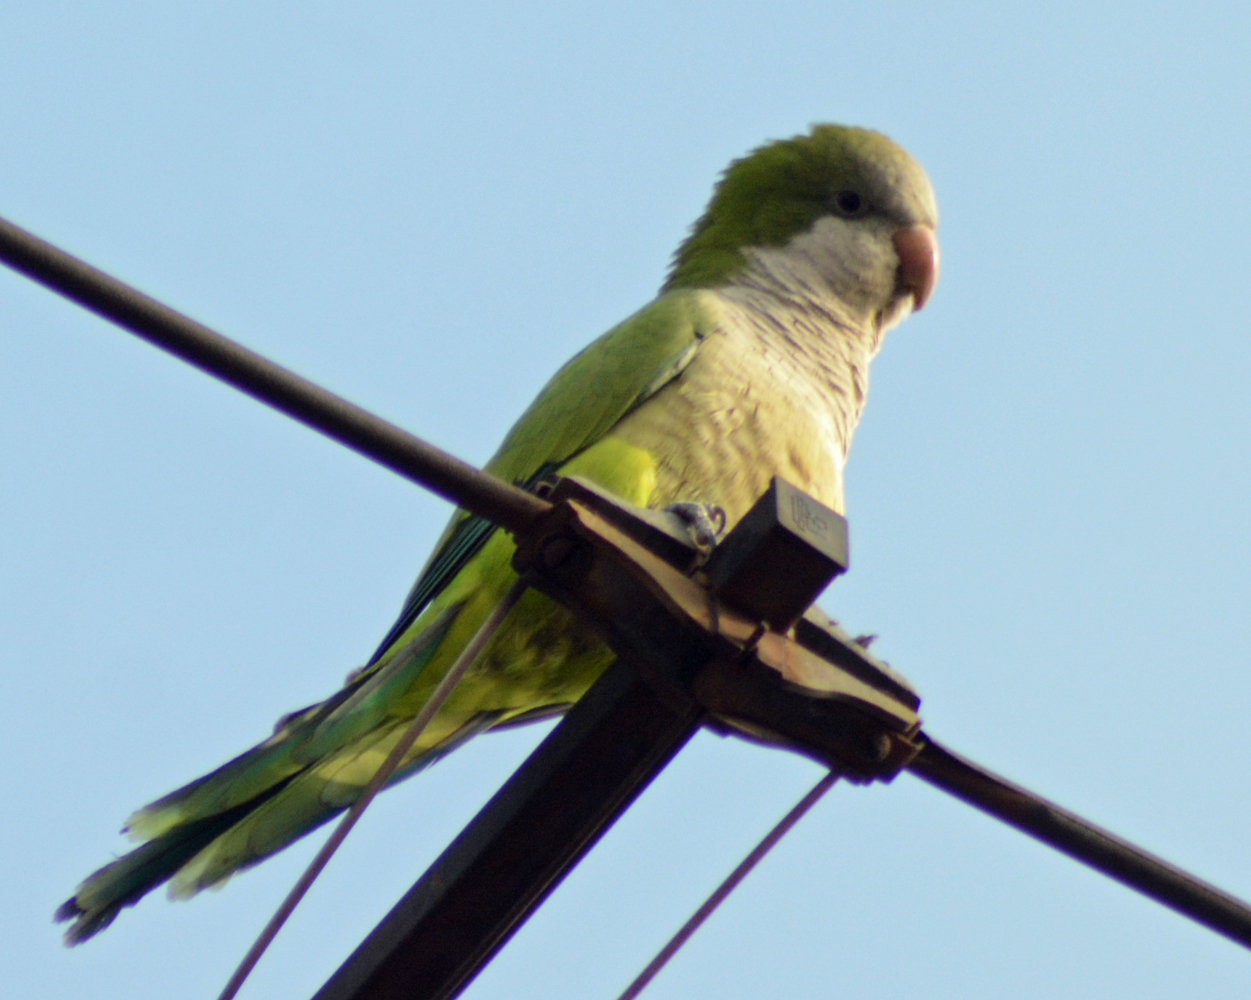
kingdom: Animalia
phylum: Chordata
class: Aves
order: Psittaciformes
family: Psittacidae
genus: Myiopsitta
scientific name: Myiopsitta monachus
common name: Monk parakeet
